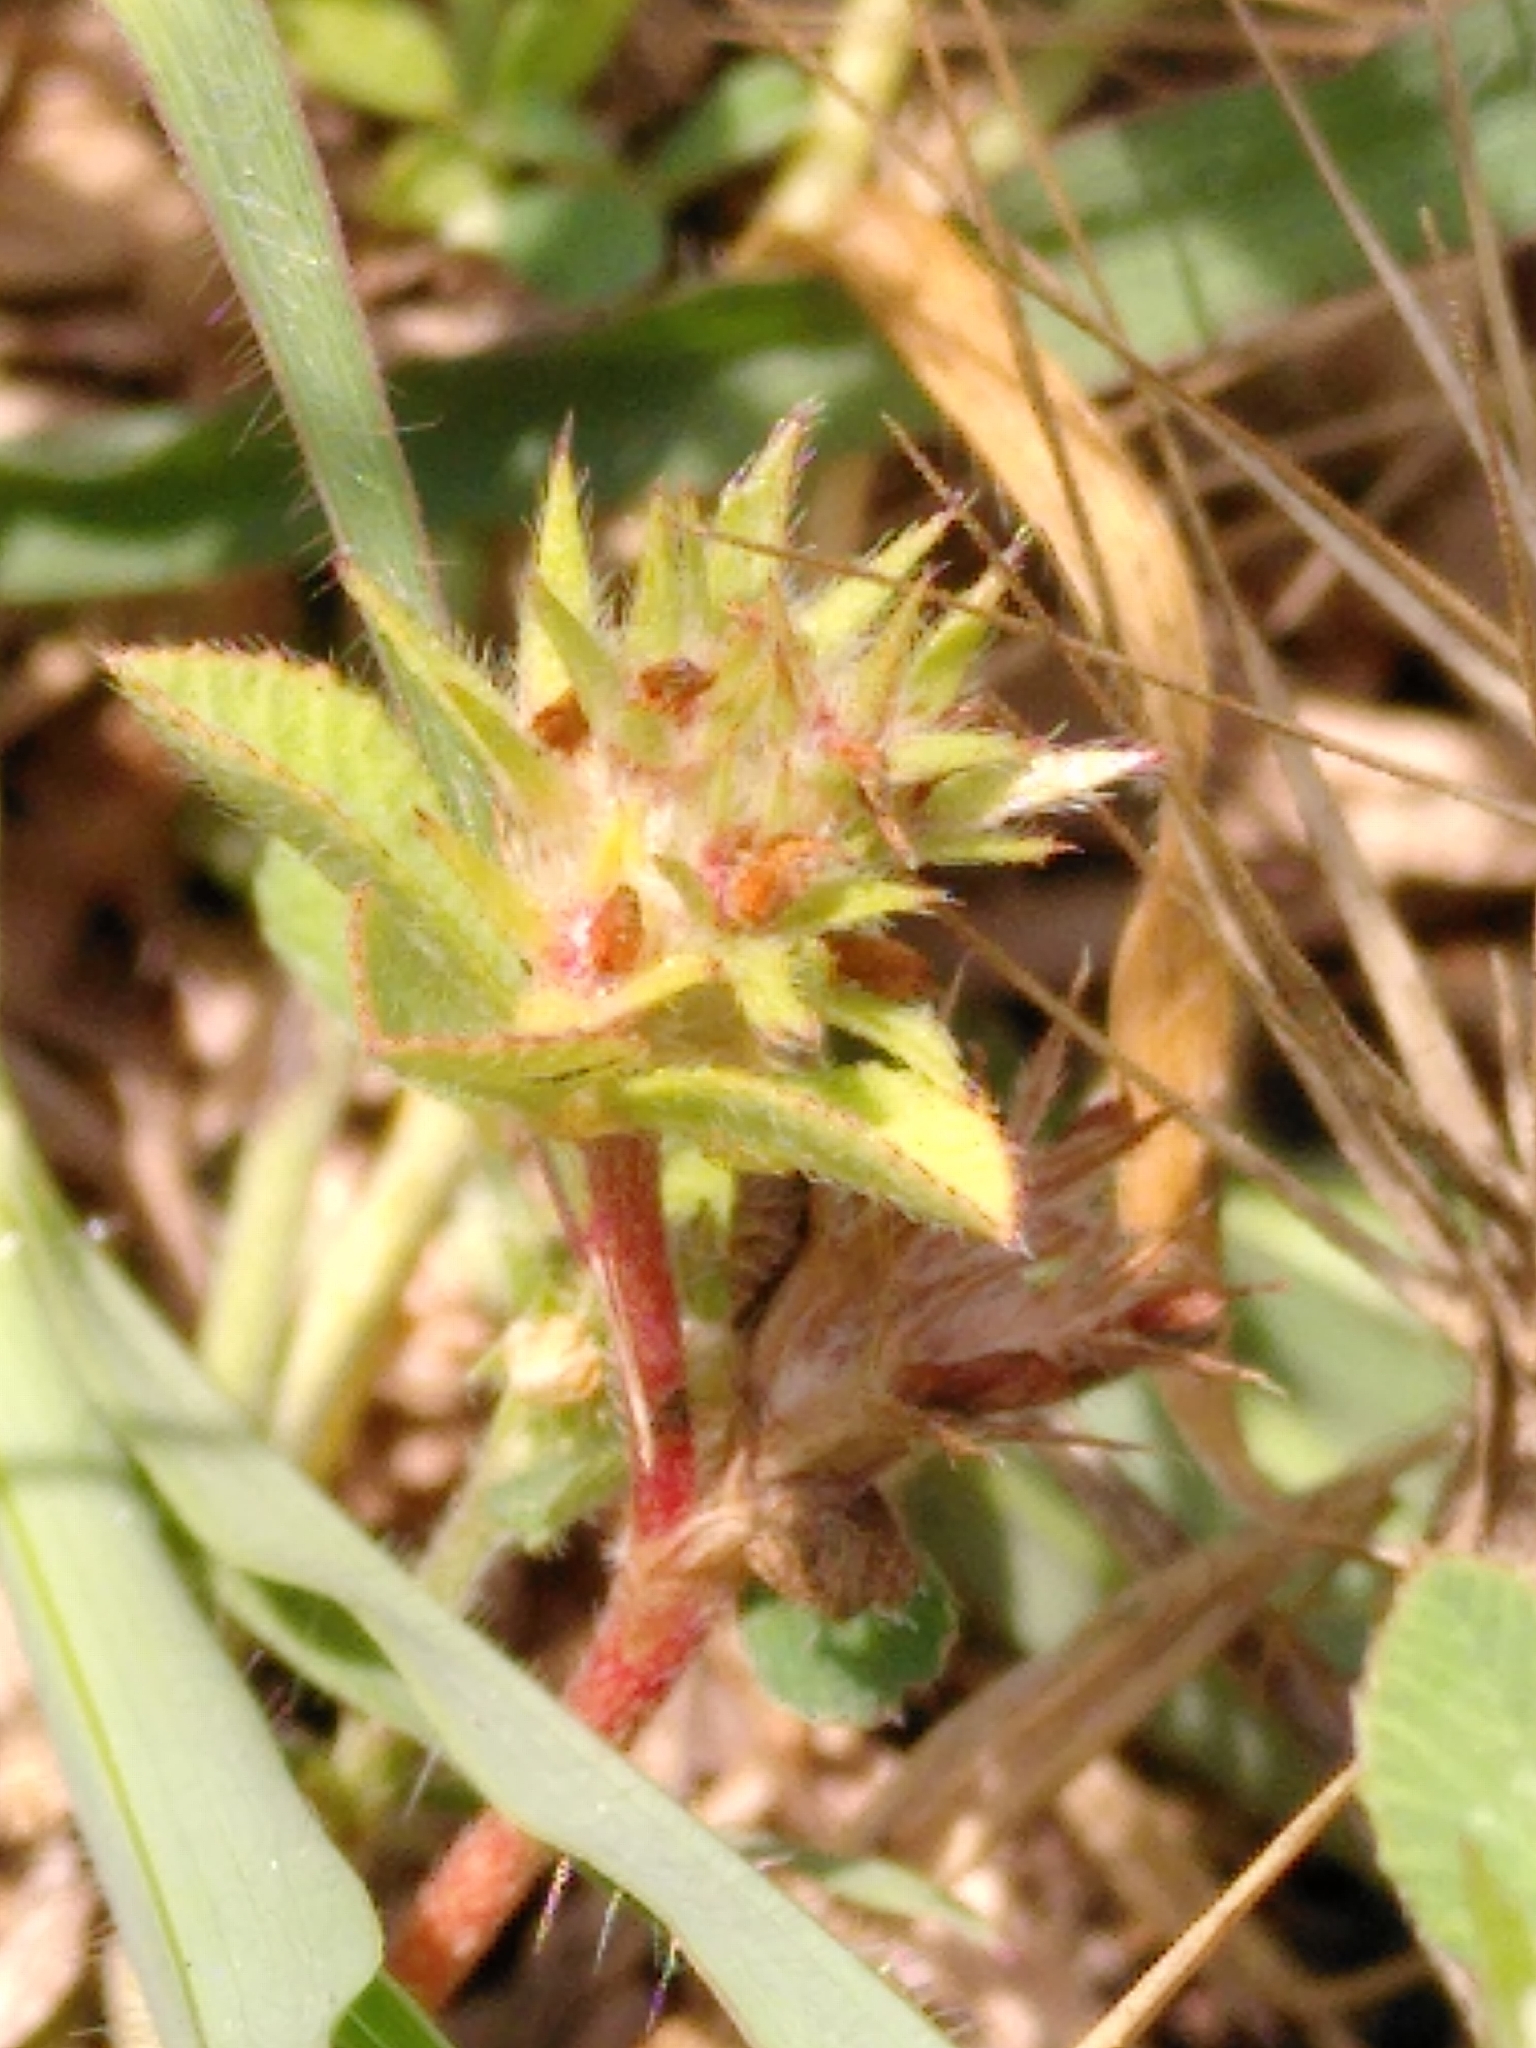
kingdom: Plantae
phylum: Tracheophyta
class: Magnoliopsida
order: Fabales
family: Fabaceae
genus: Trifolium
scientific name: Trifolium scabrum
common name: Rough clover
